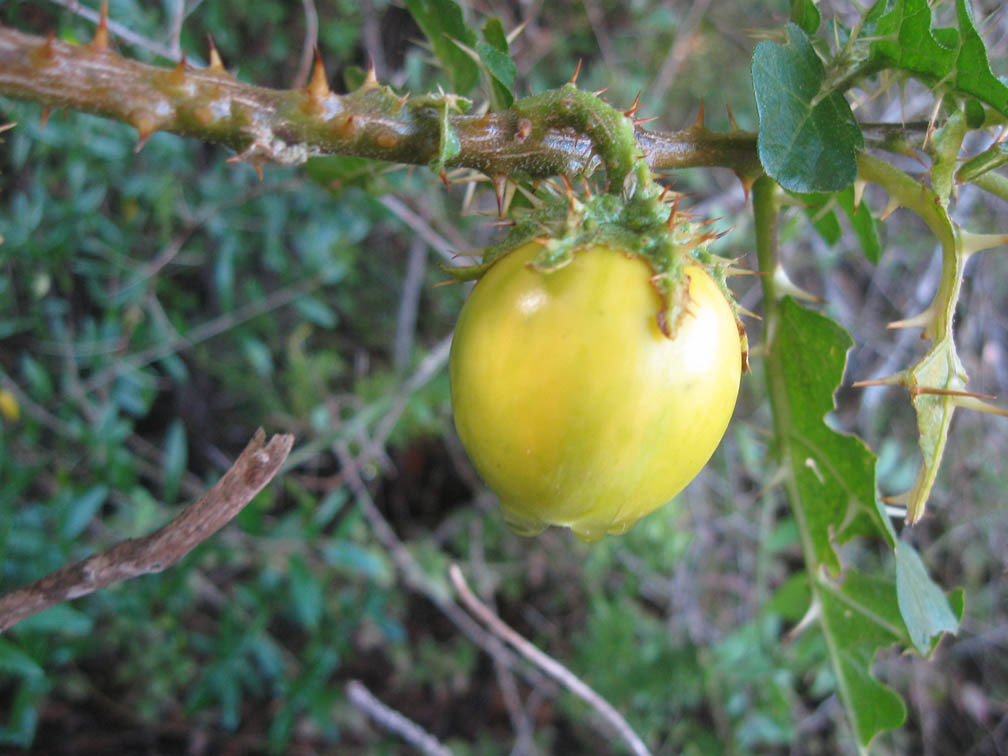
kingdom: Plantae
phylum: Tracheophyta
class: Magnoliopsida
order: Solanales
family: Solanaceae
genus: Solanum
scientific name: Solanum linnaeanum
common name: Nightshade
